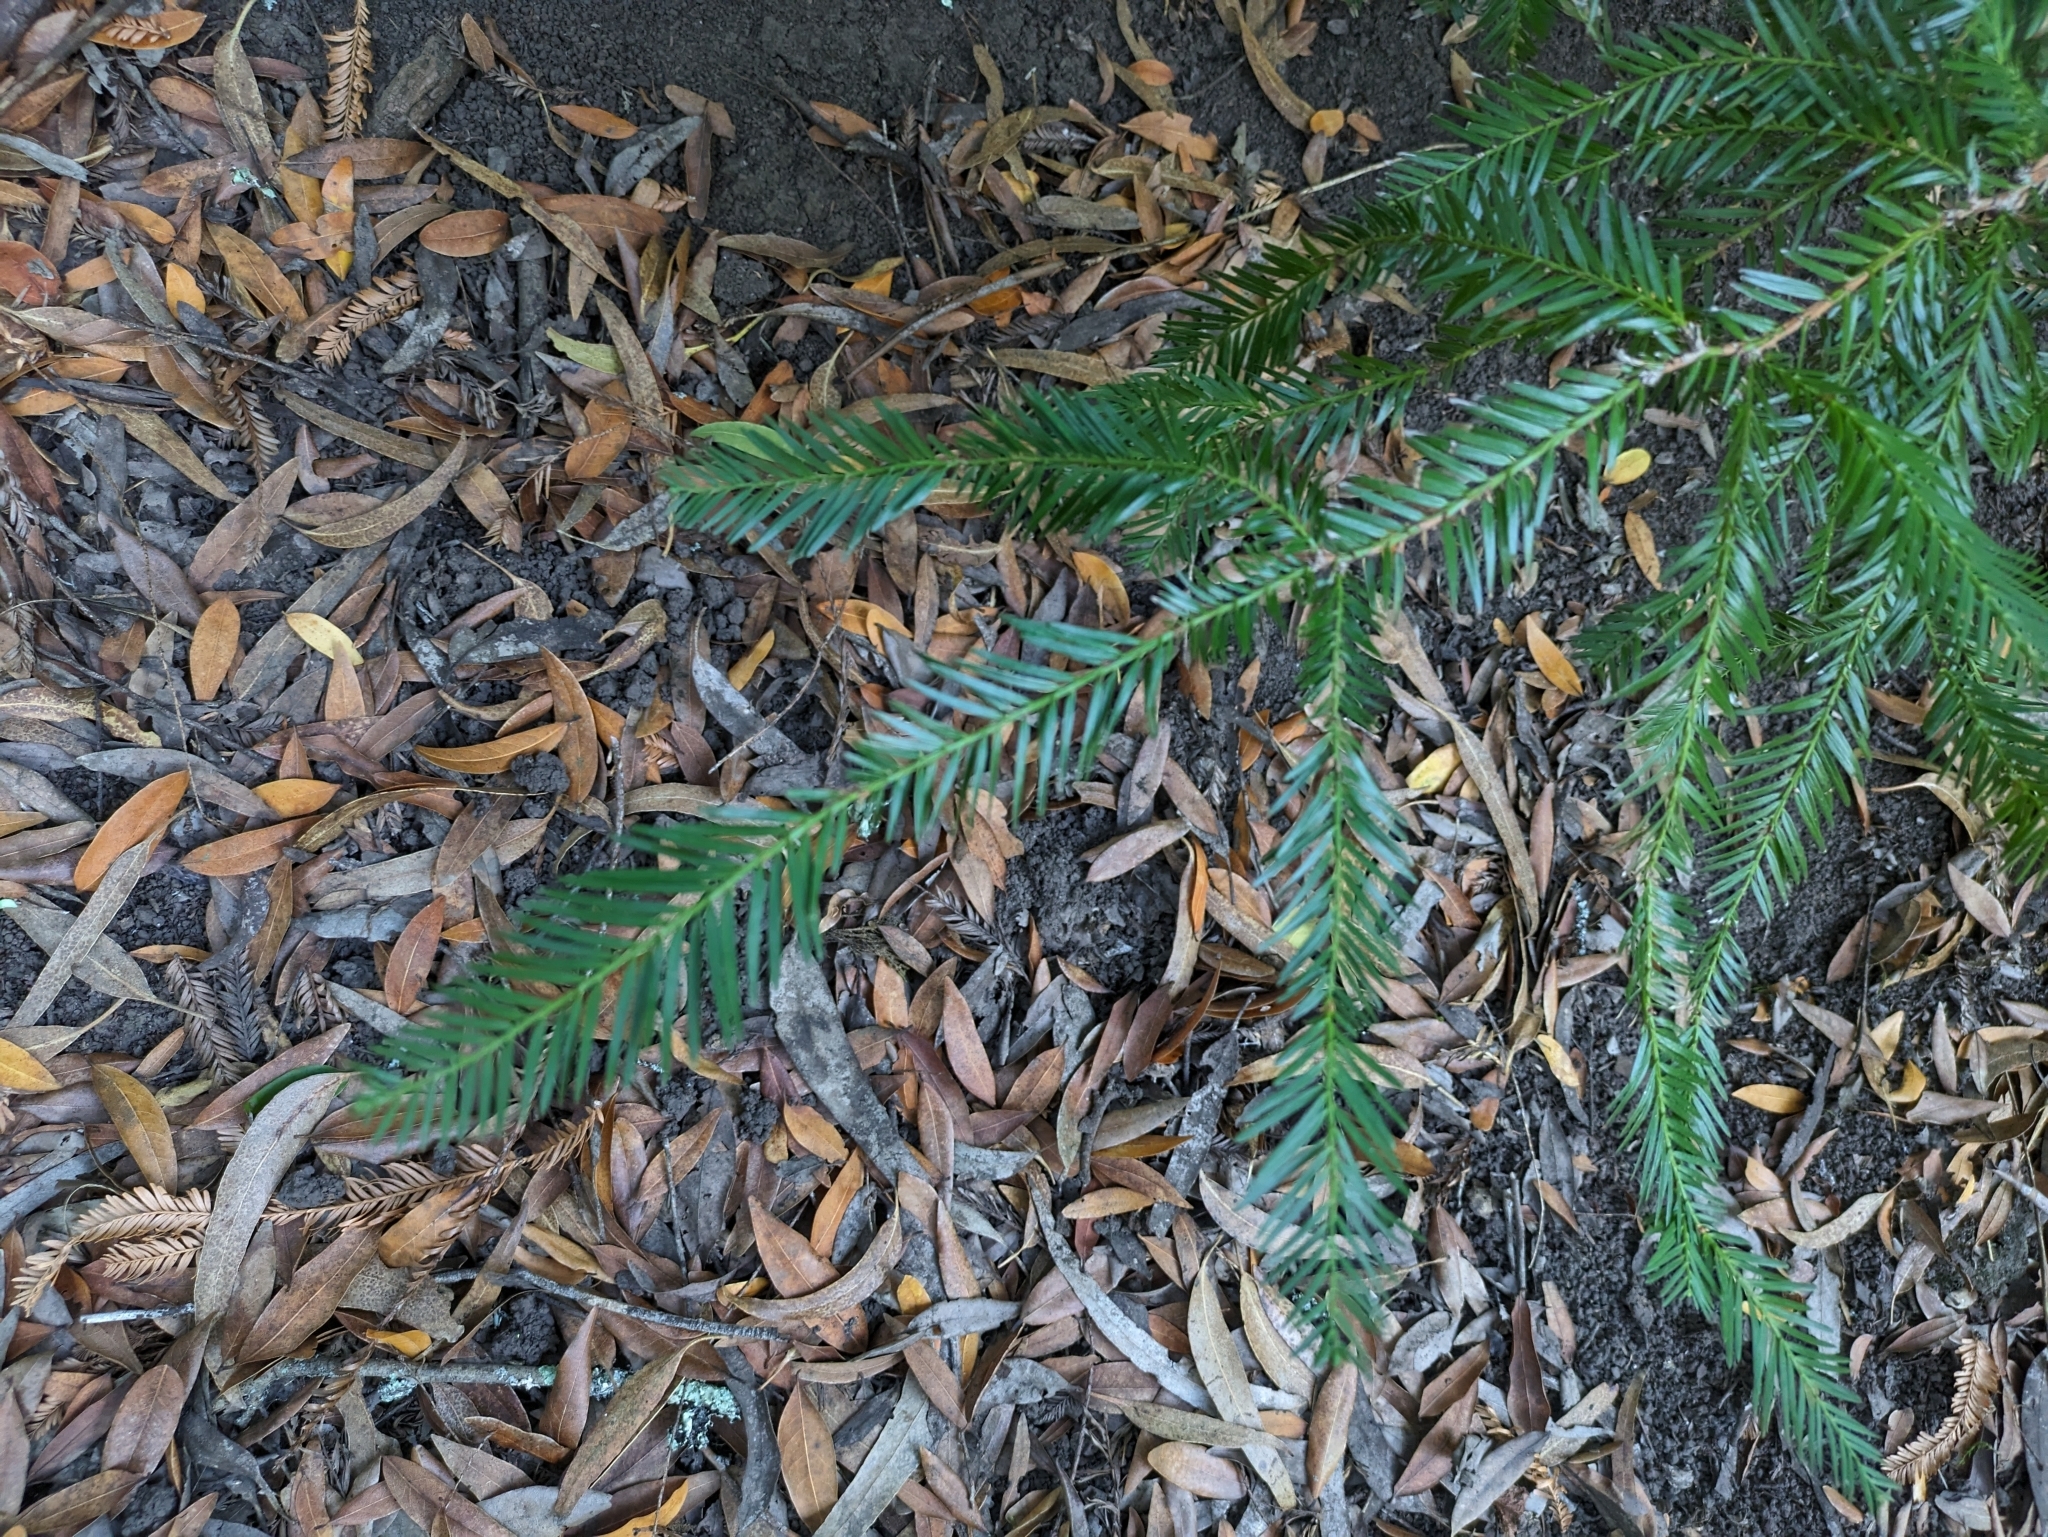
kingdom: Plantae
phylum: Tracheophyta
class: Pinopsida
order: Pinales
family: Cupressaceae
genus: Sequoia
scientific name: Sequoia sempervirens
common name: Coast redwood
